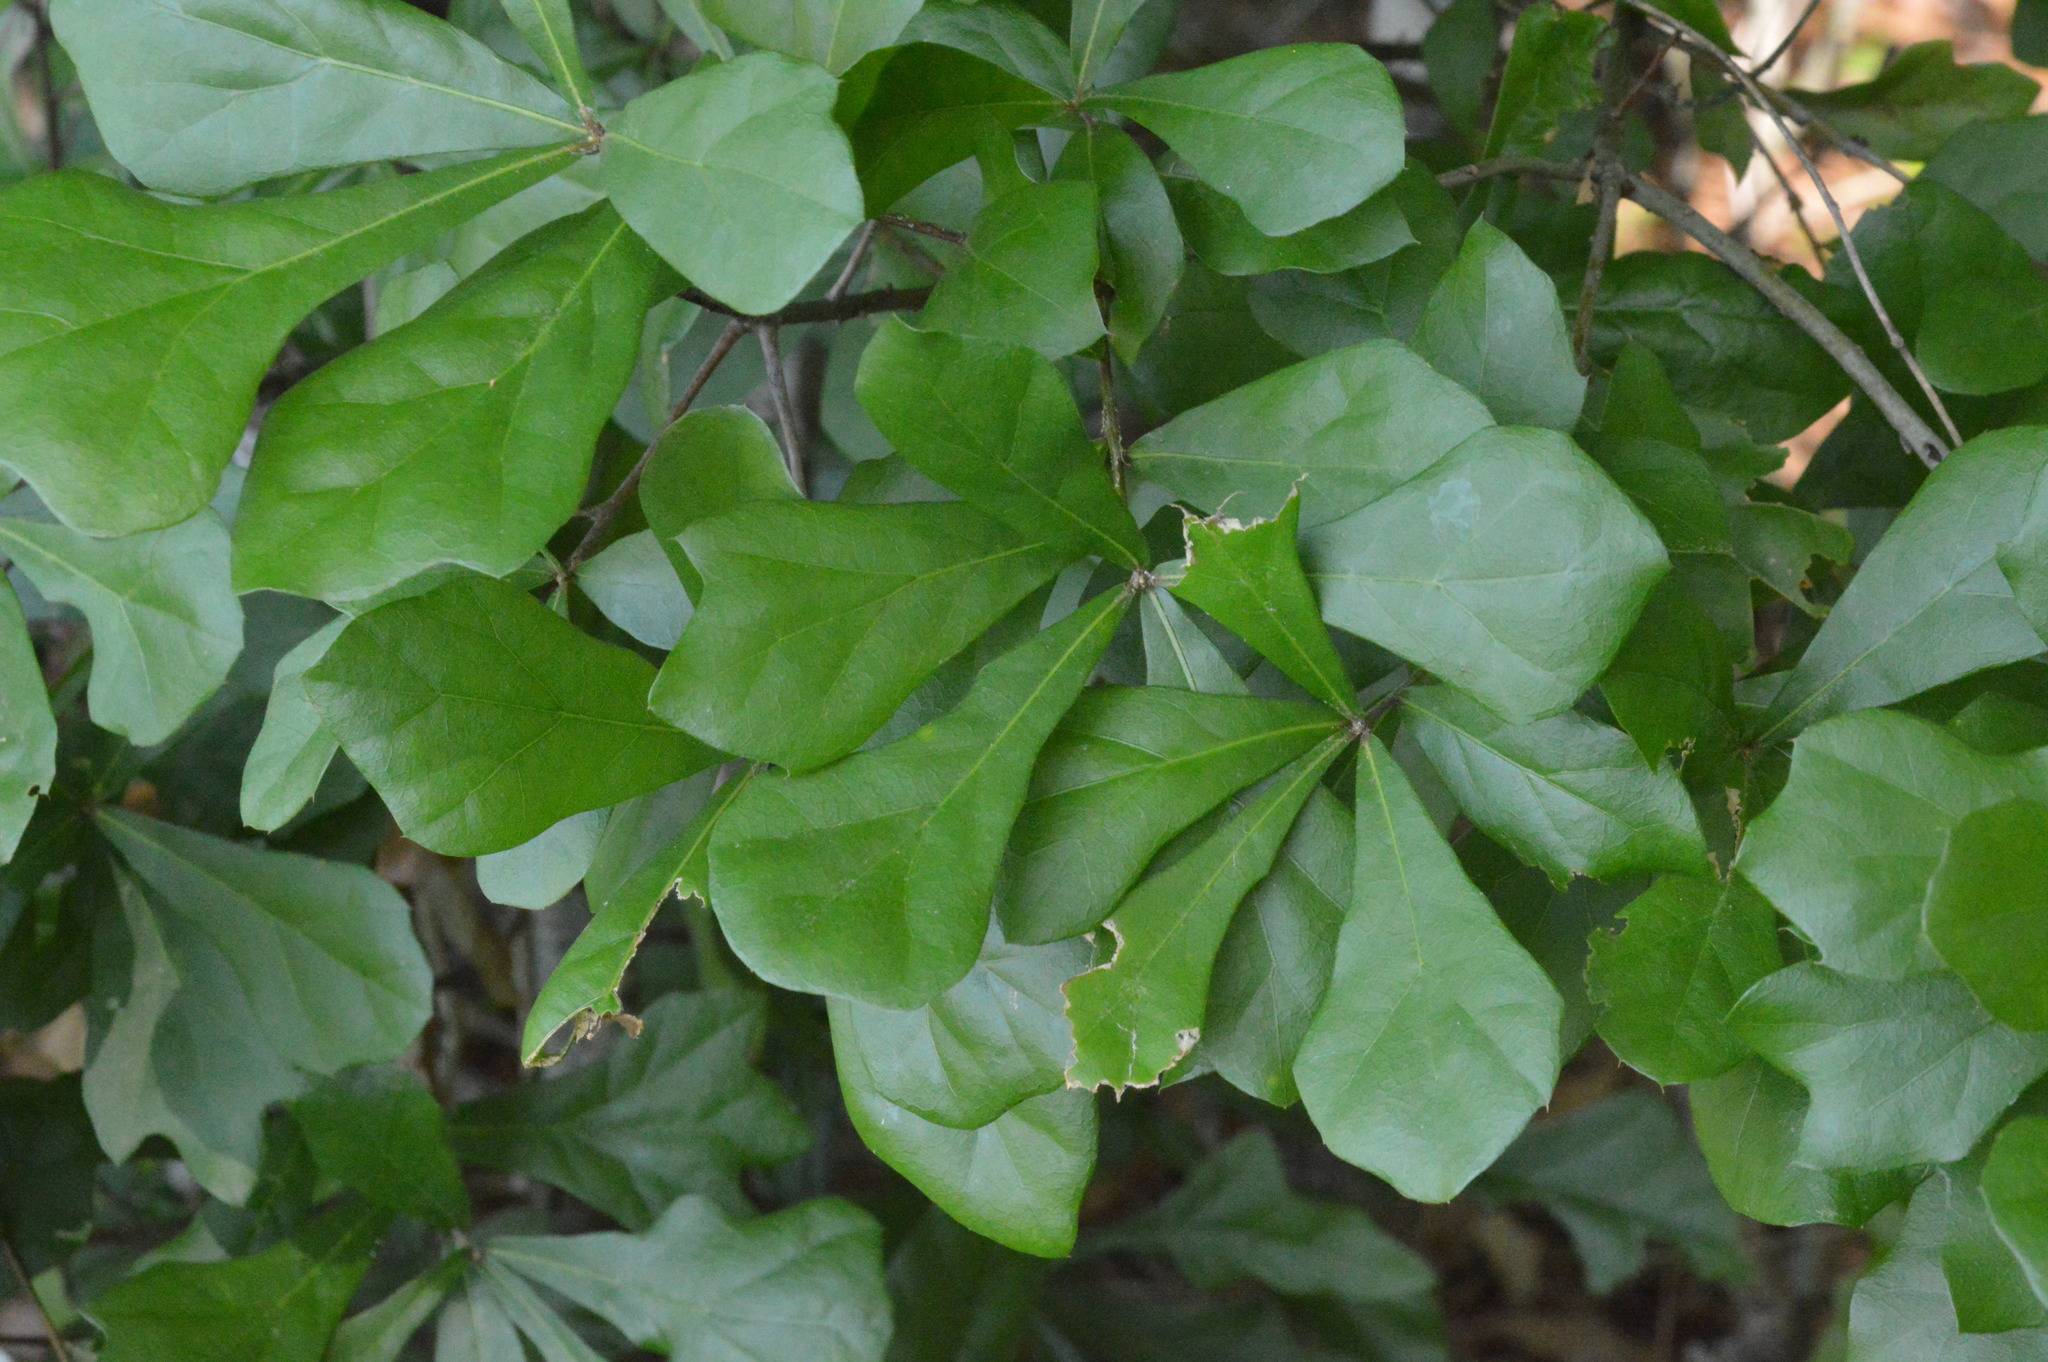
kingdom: Plantae
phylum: Tracheophyta
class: Magnoliopsida
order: Fagales
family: Fagaceae
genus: Quercus
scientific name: Quercus nigra
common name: Water oak
